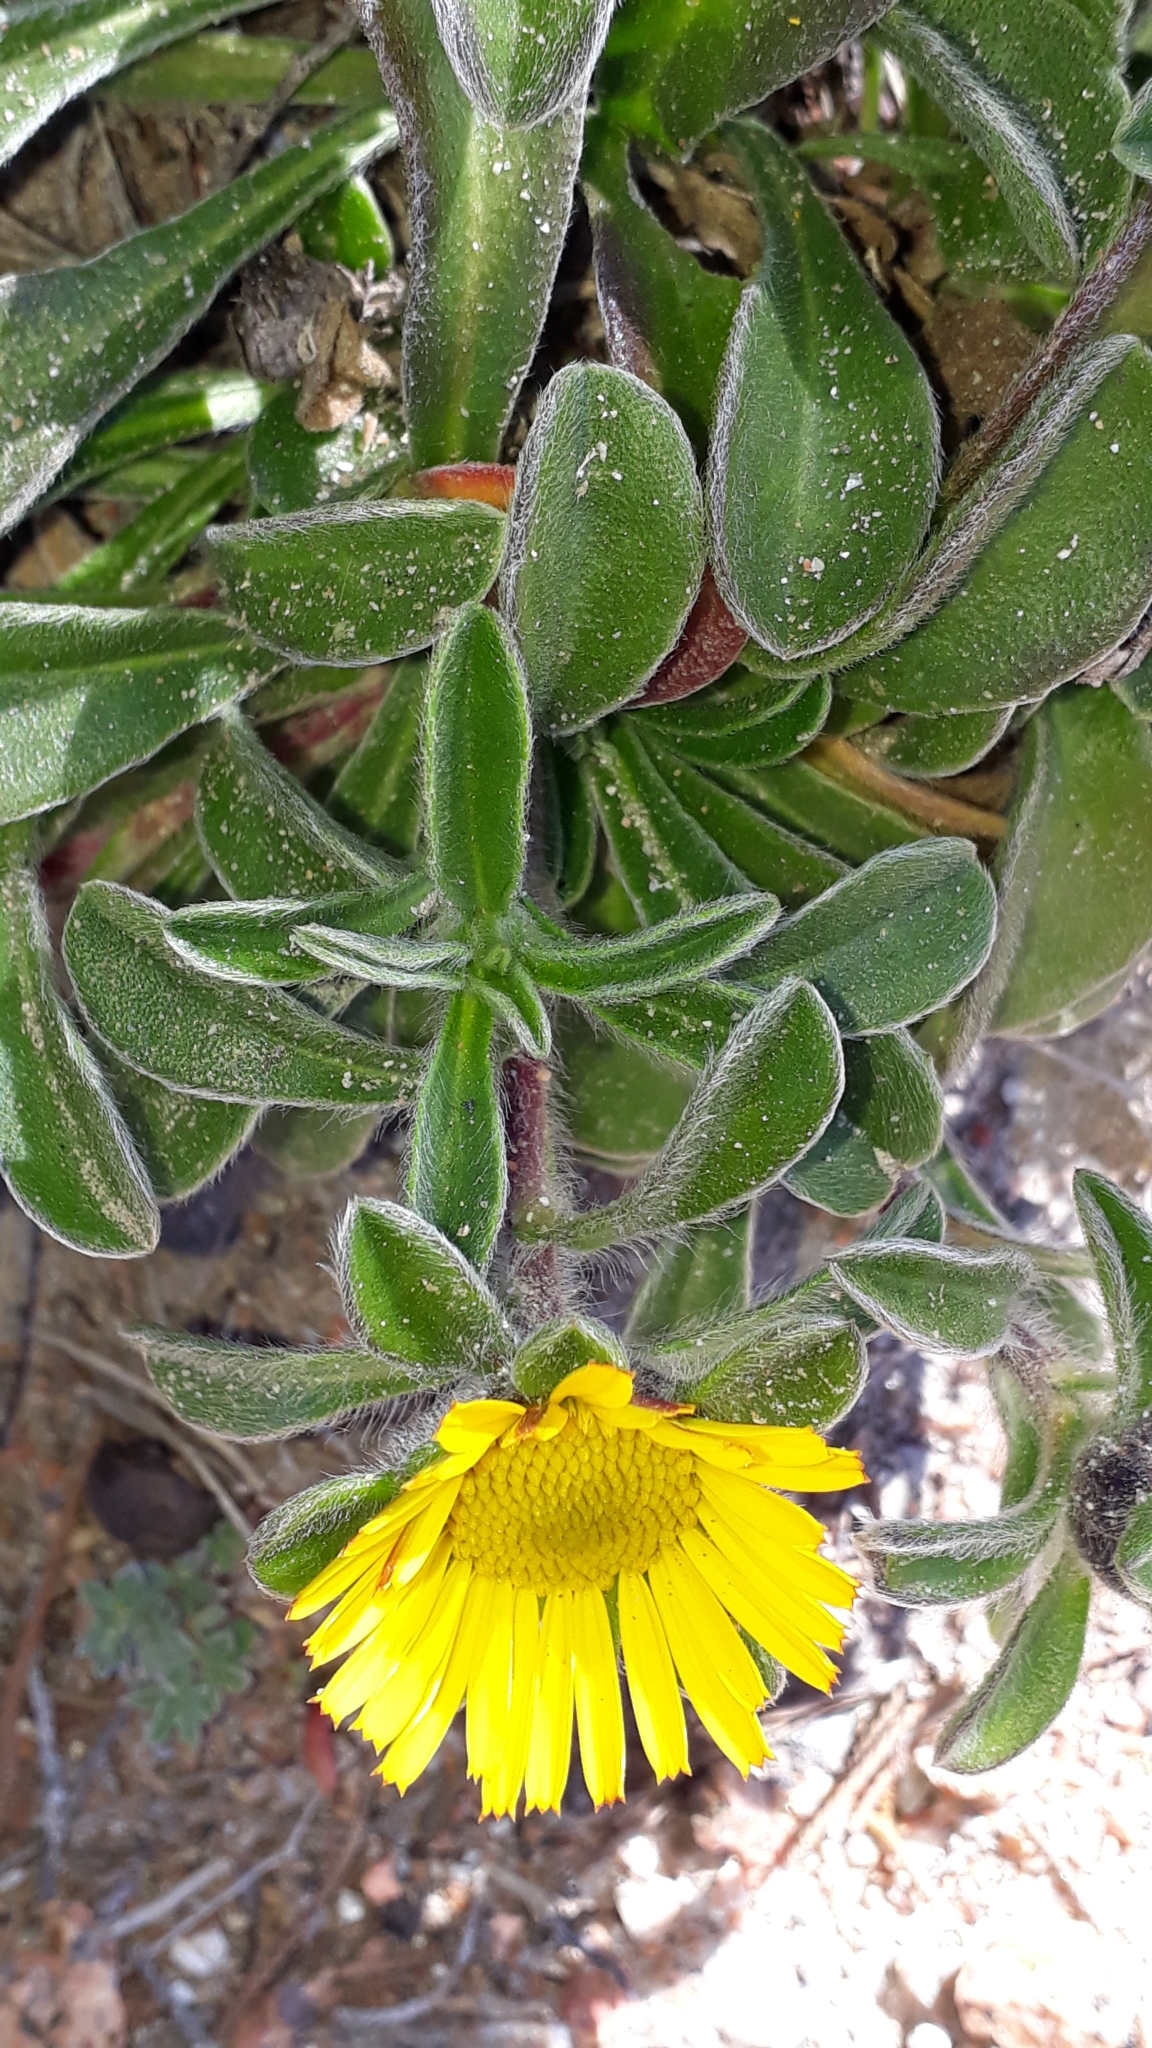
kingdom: Plantae
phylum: Tracheophyta
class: Magnoliopsida
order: Asterales
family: Asteraceae
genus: Pallenis
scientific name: Pallenis maritima
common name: Golden coin daisy
